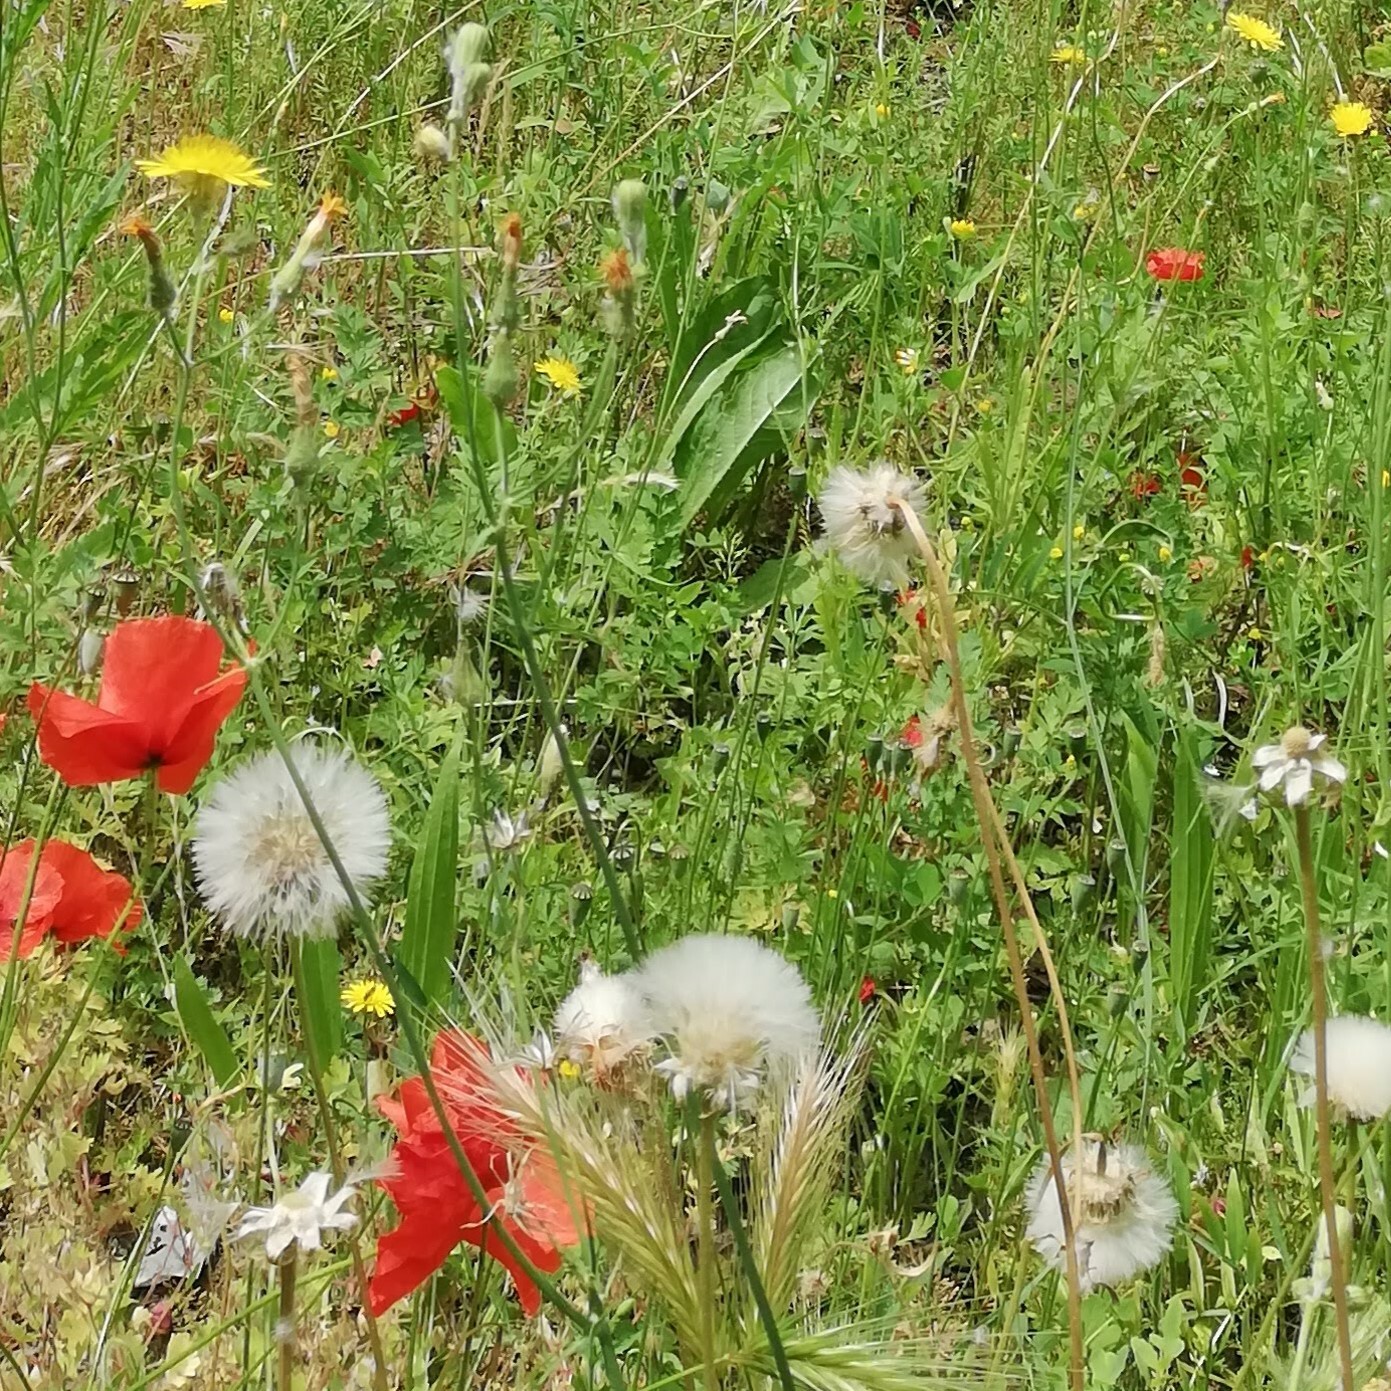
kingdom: Plantae
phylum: Tracheophyta
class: Magnoliopsida
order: Asterales
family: Asteraceae
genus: Taraxacum
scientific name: Taraxacum officinale
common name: Common dandelion
